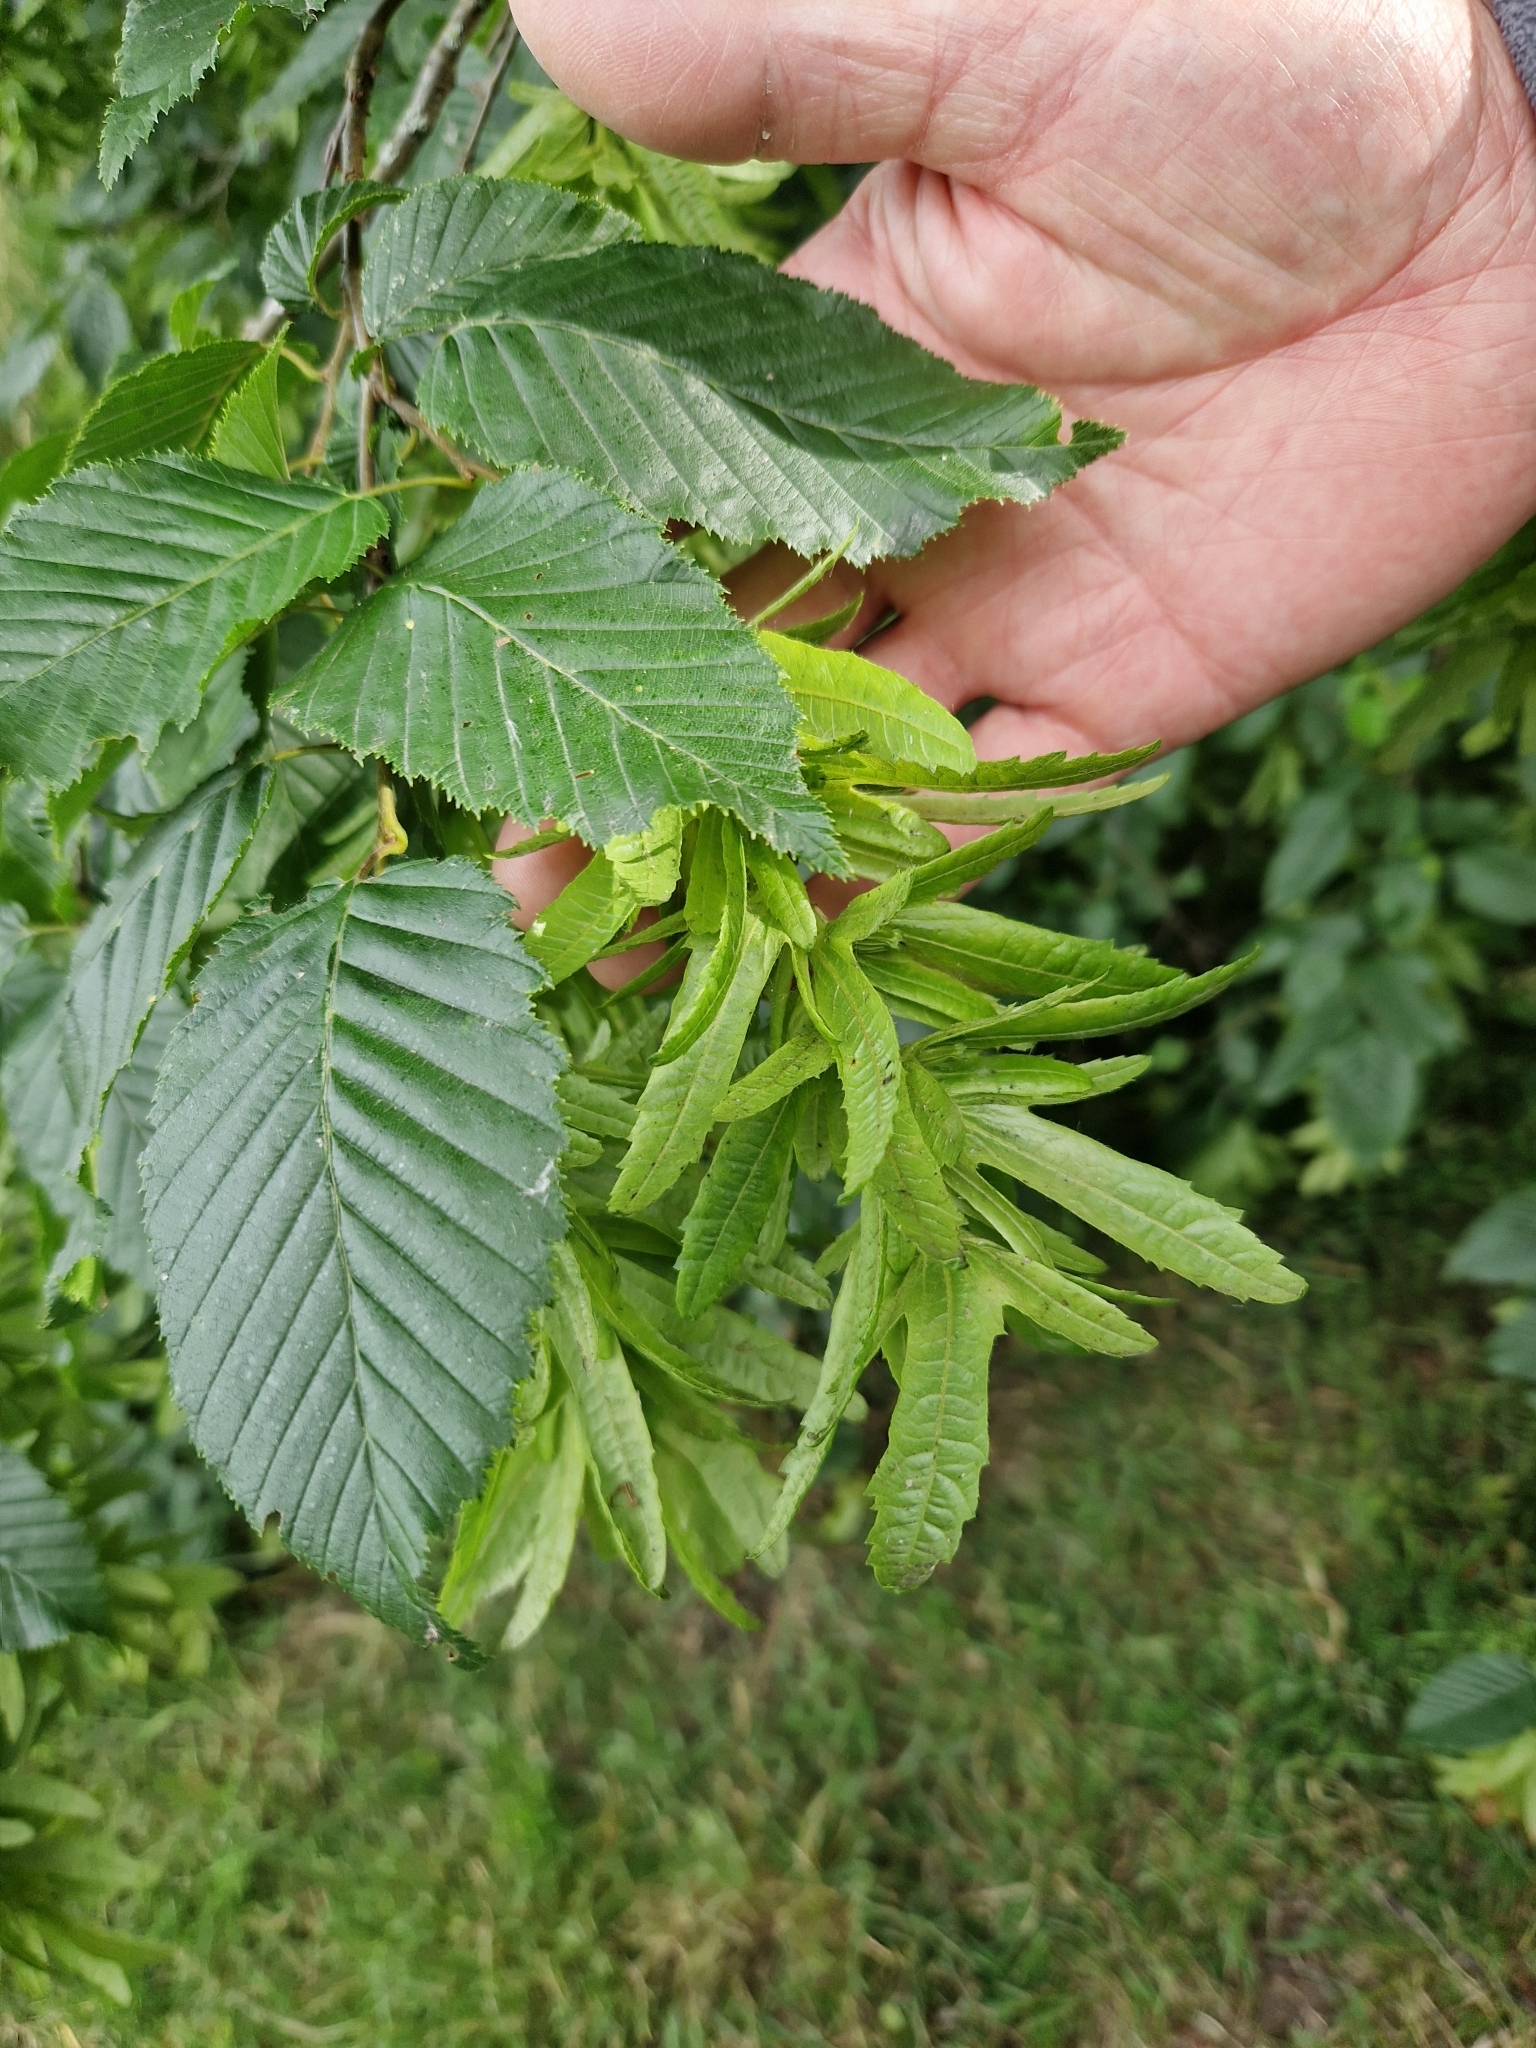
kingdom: Plantae
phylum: Tracheophyta
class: Magnoliopsida
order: Fagales
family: Betulaceae
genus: Carpinus
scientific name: Carpinus betulus
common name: Hornbeam
